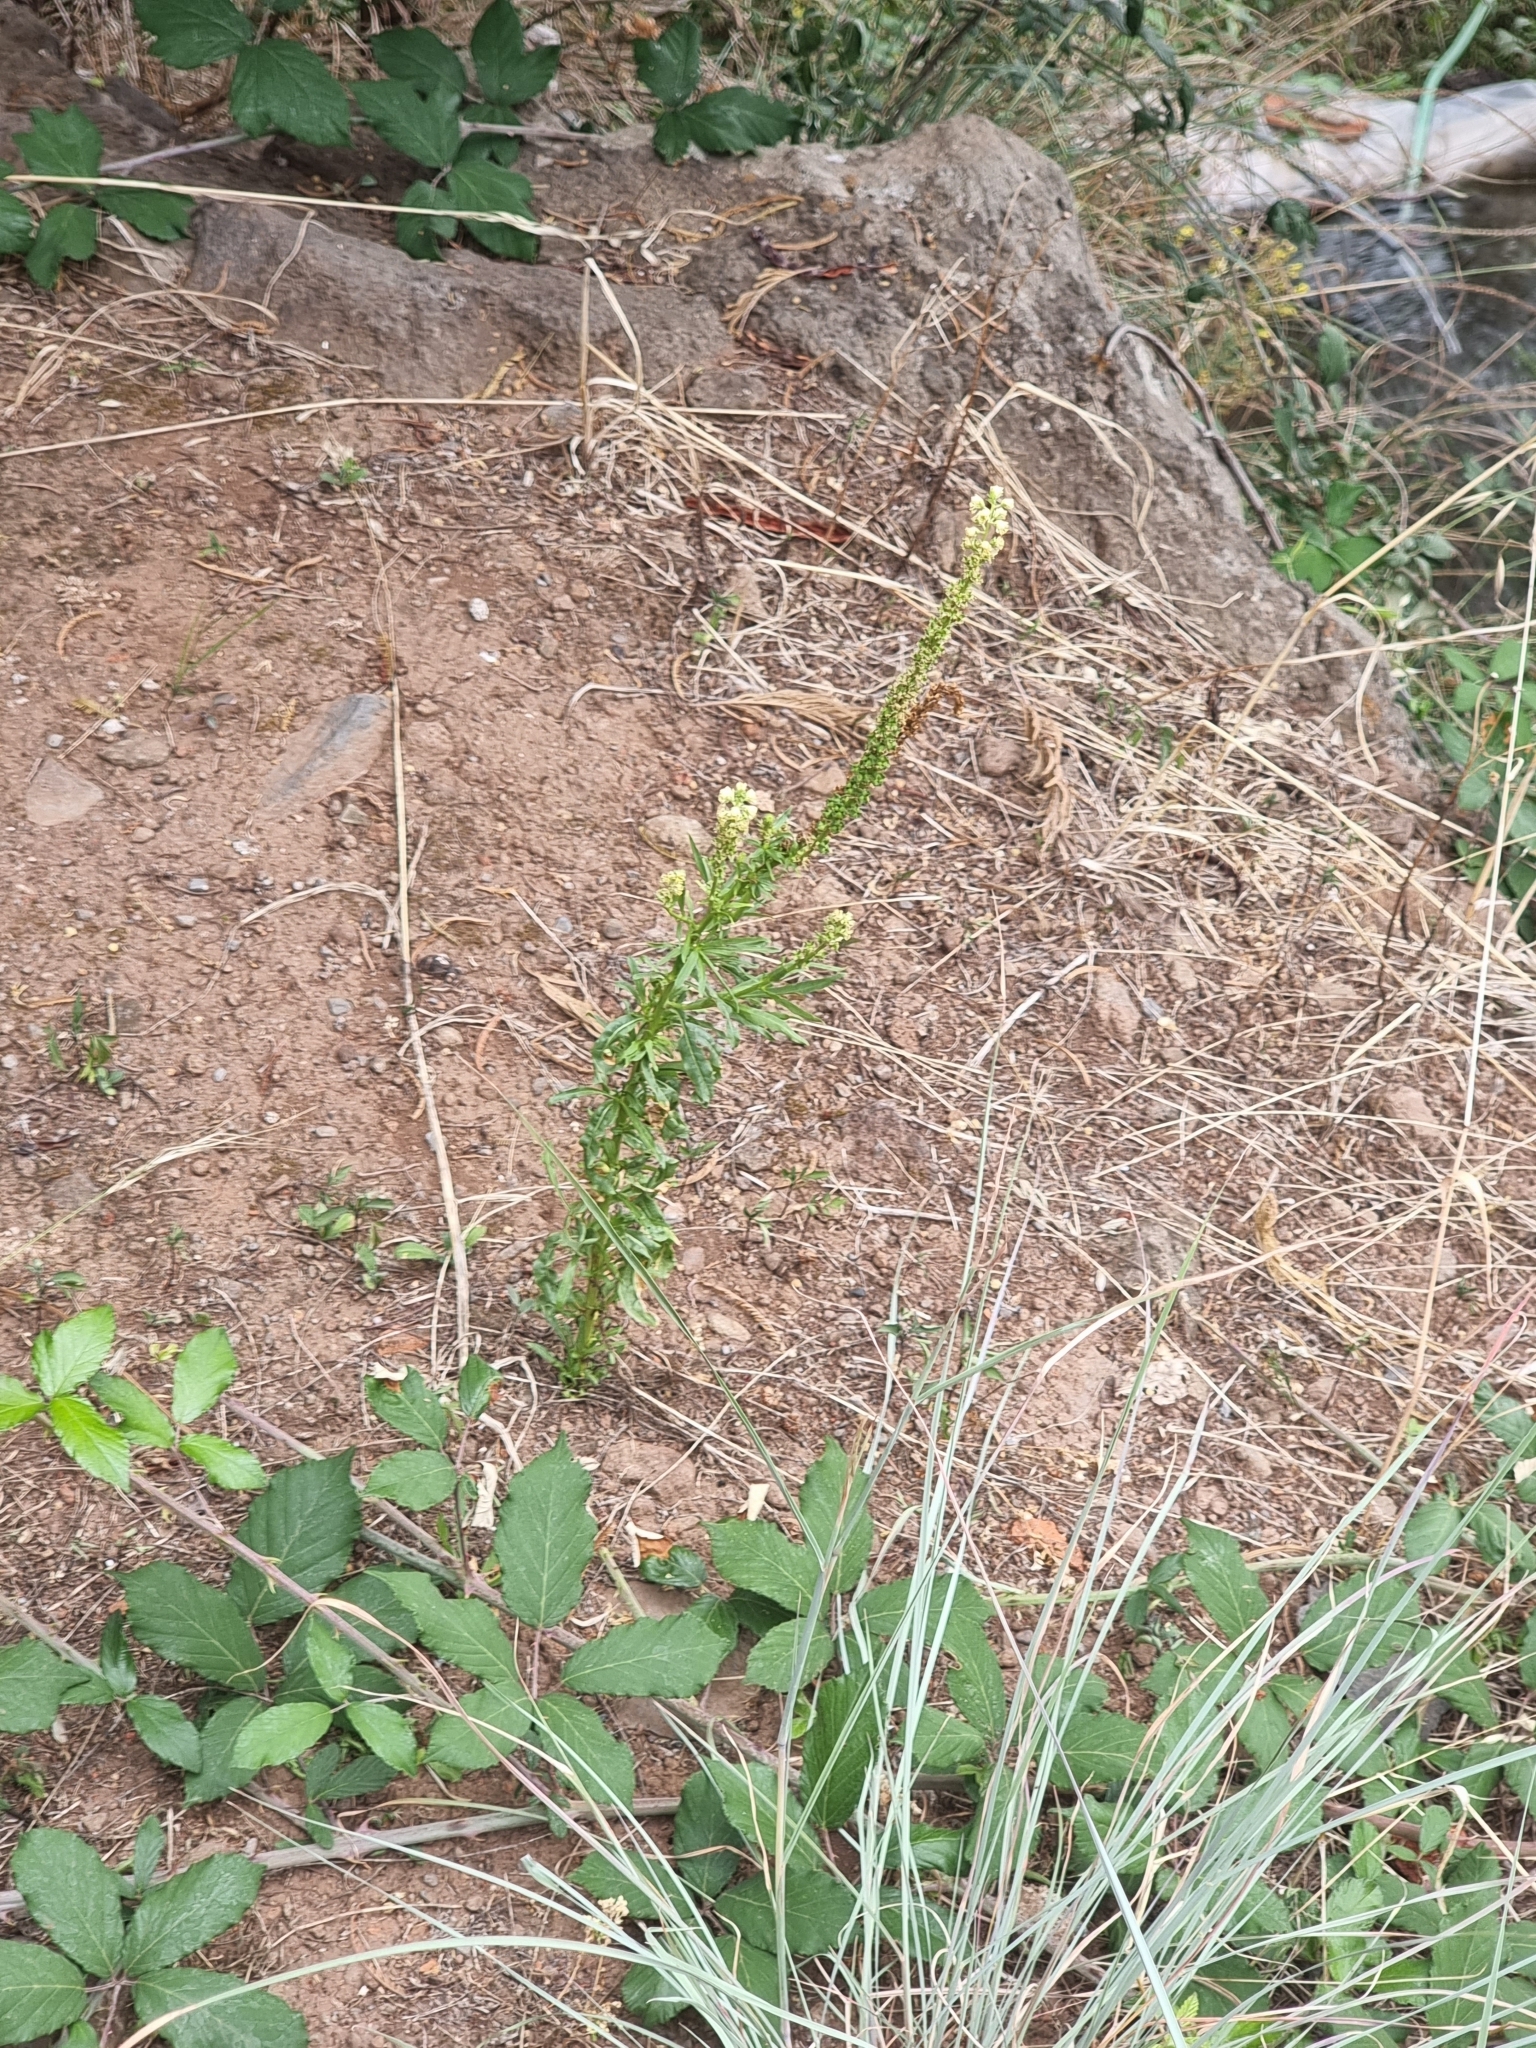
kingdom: Plantae
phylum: Tracheophyta
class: Magnoliopsida
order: Brassicales
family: Resedaceae
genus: Reseda
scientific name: Reseda luteola
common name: Weld
